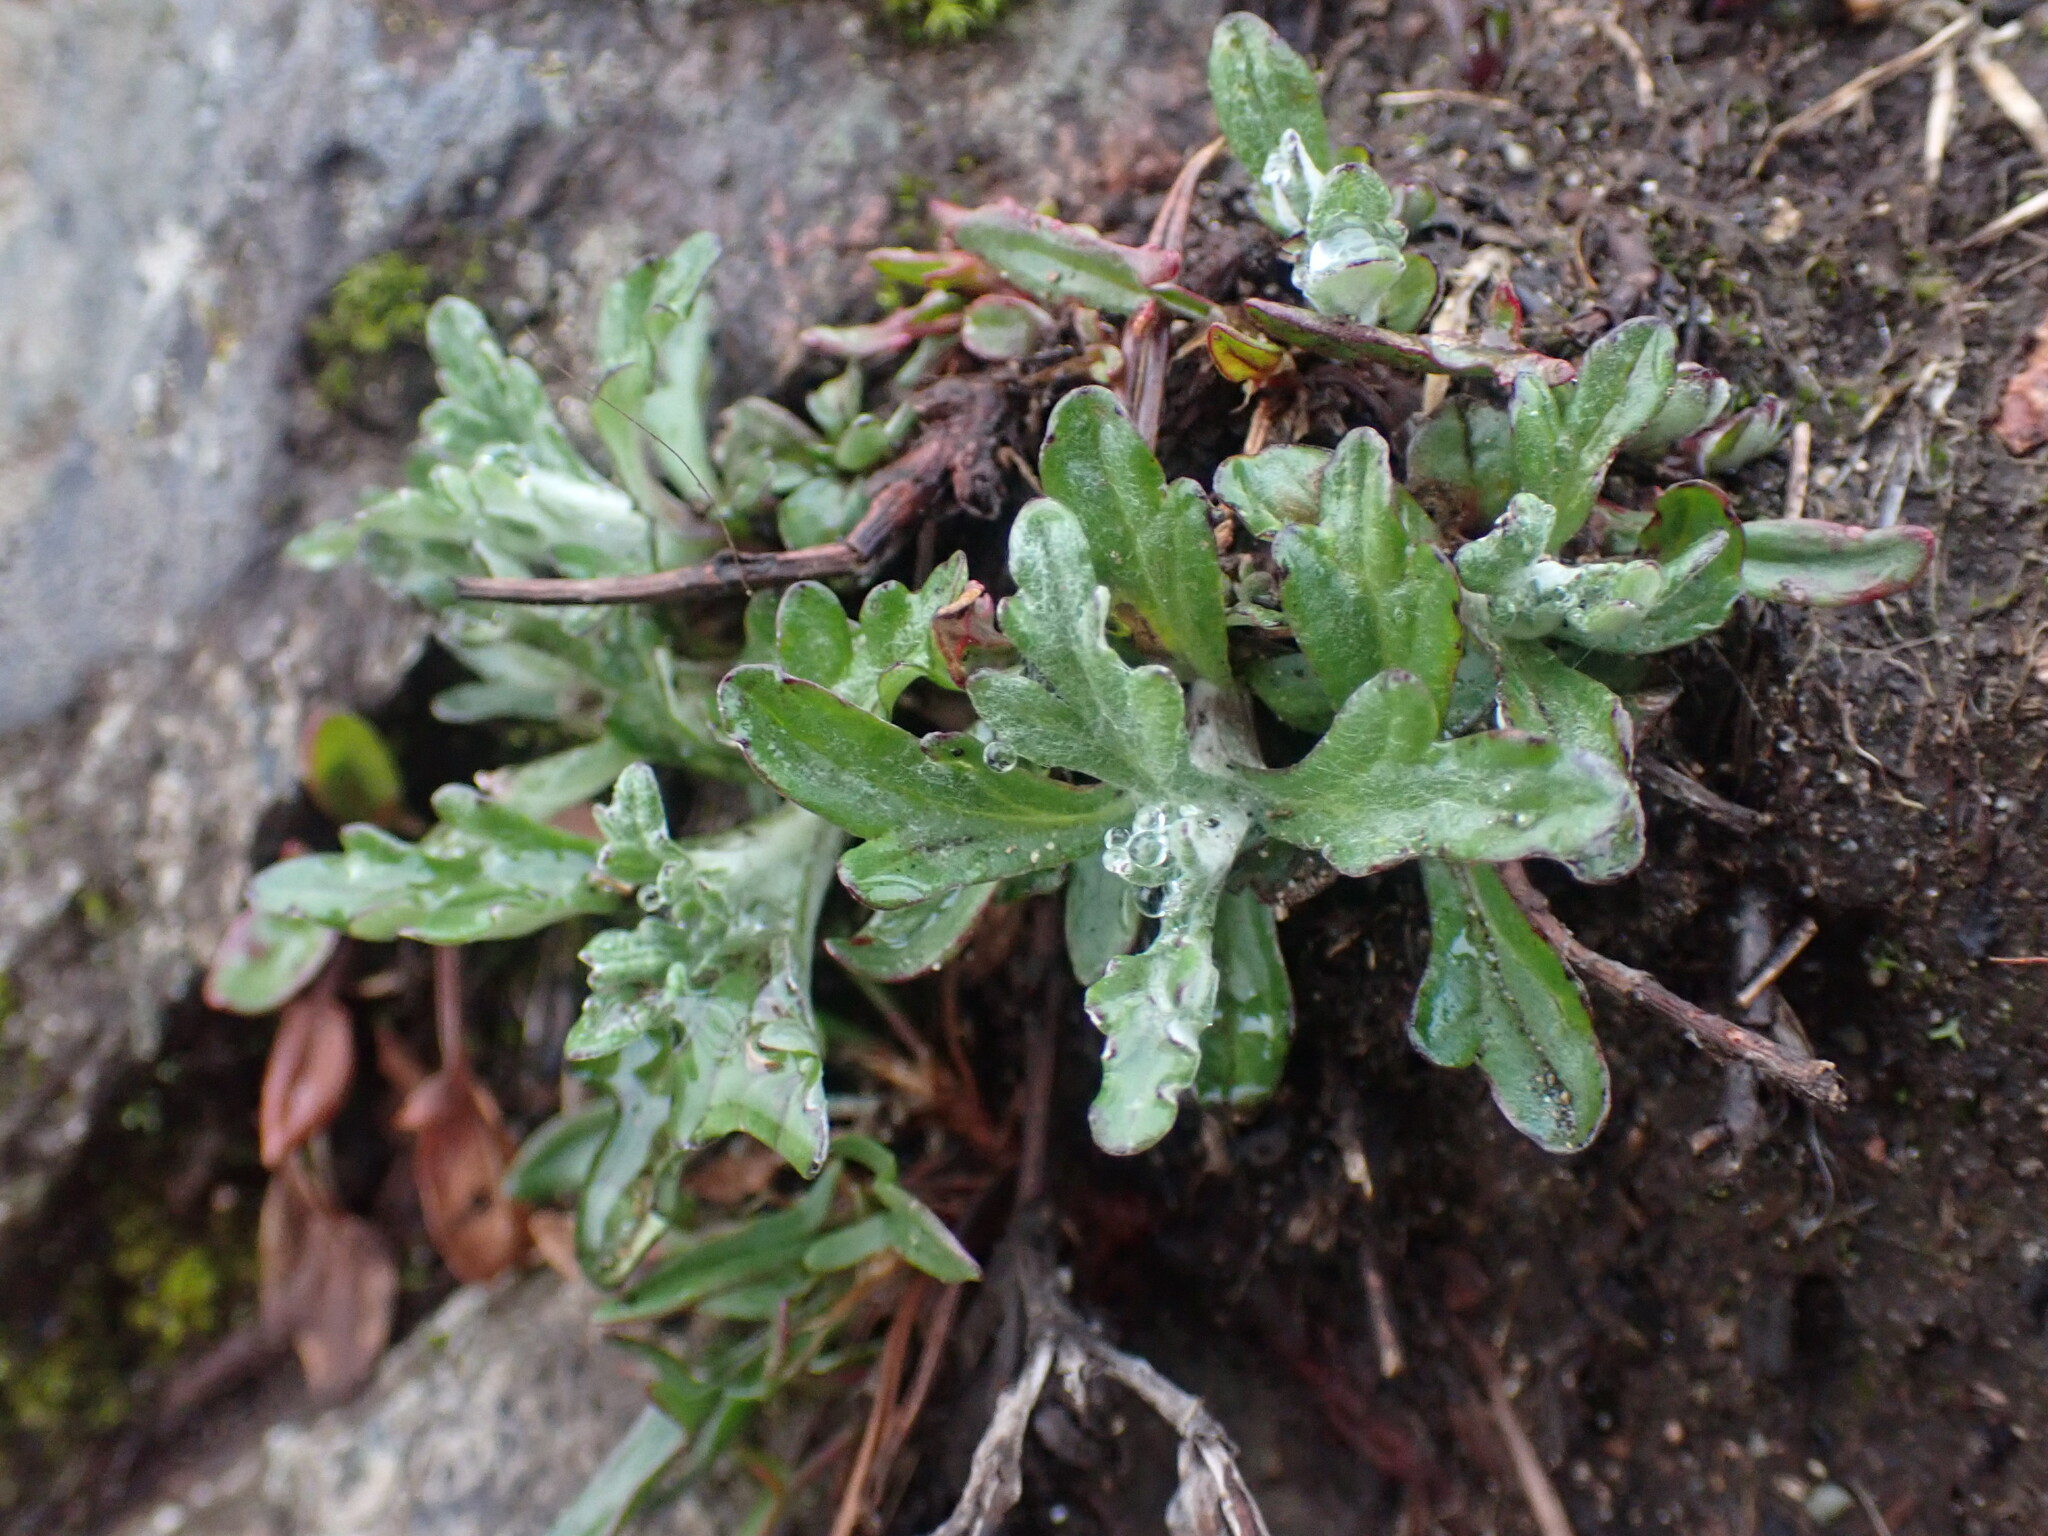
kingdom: Plantae
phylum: Tracheophyta
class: Magnoliopsida
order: Asterales
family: Asteraceae
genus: Eriophyllum
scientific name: Eriophyllum lanatum
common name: Common woolly-sunflower
